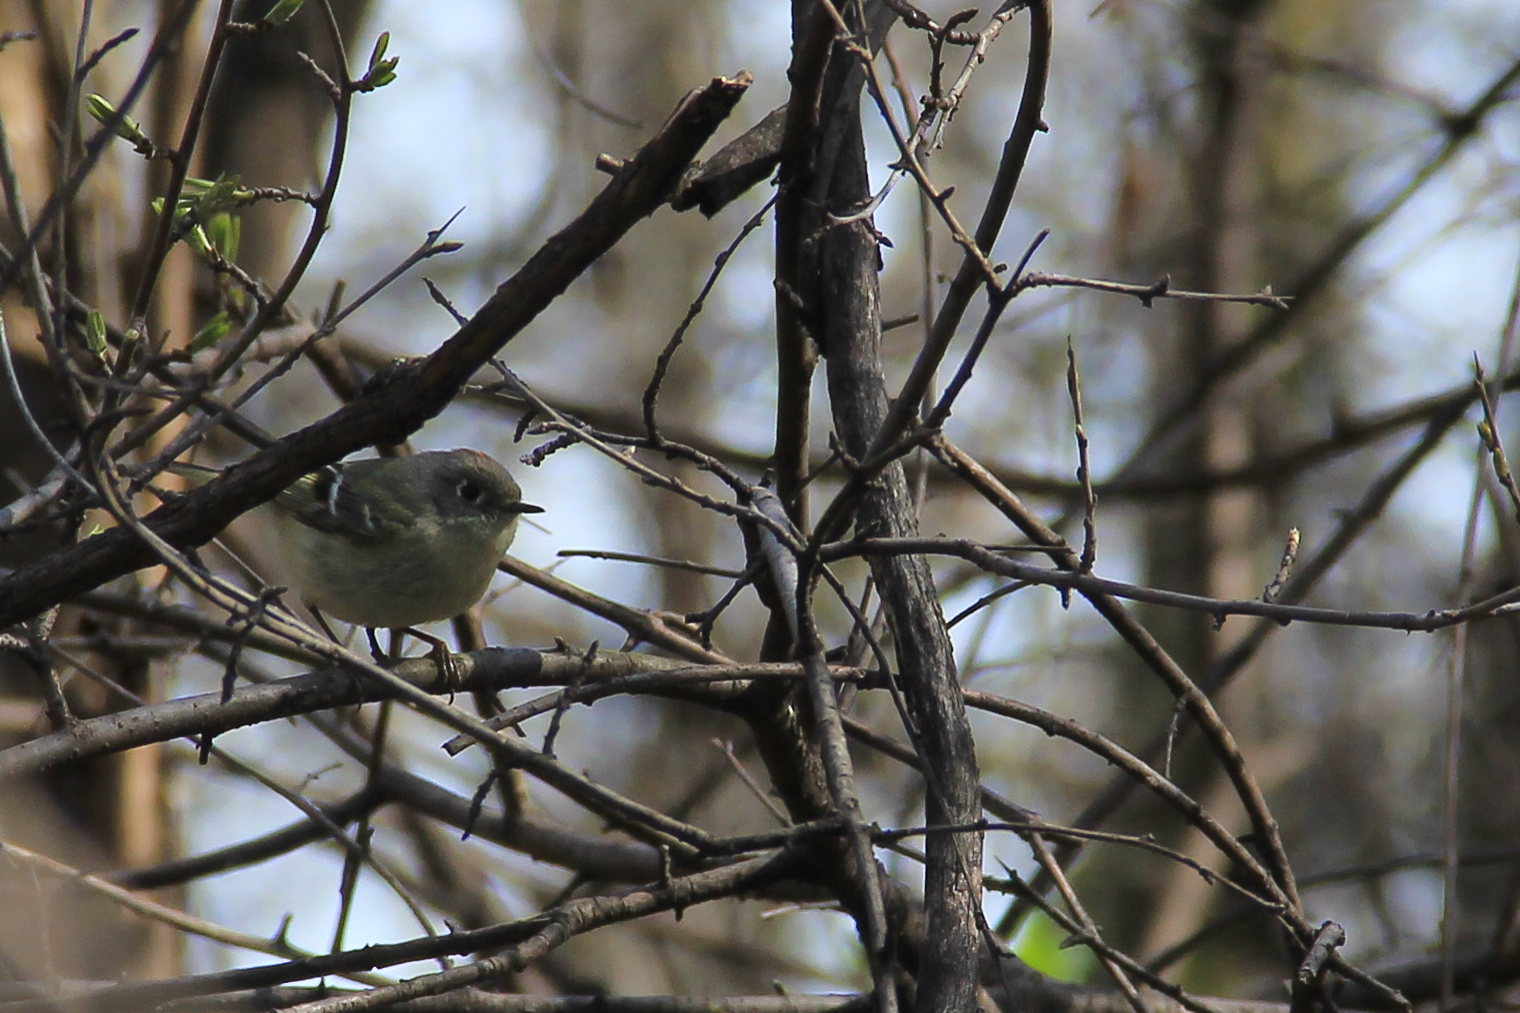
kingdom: Animalia
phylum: Chordata
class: Aves
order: Passeriformes
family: Regulidae
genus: Regulus
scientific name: Regulus calendula
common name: Ruby-crowned kinglet
